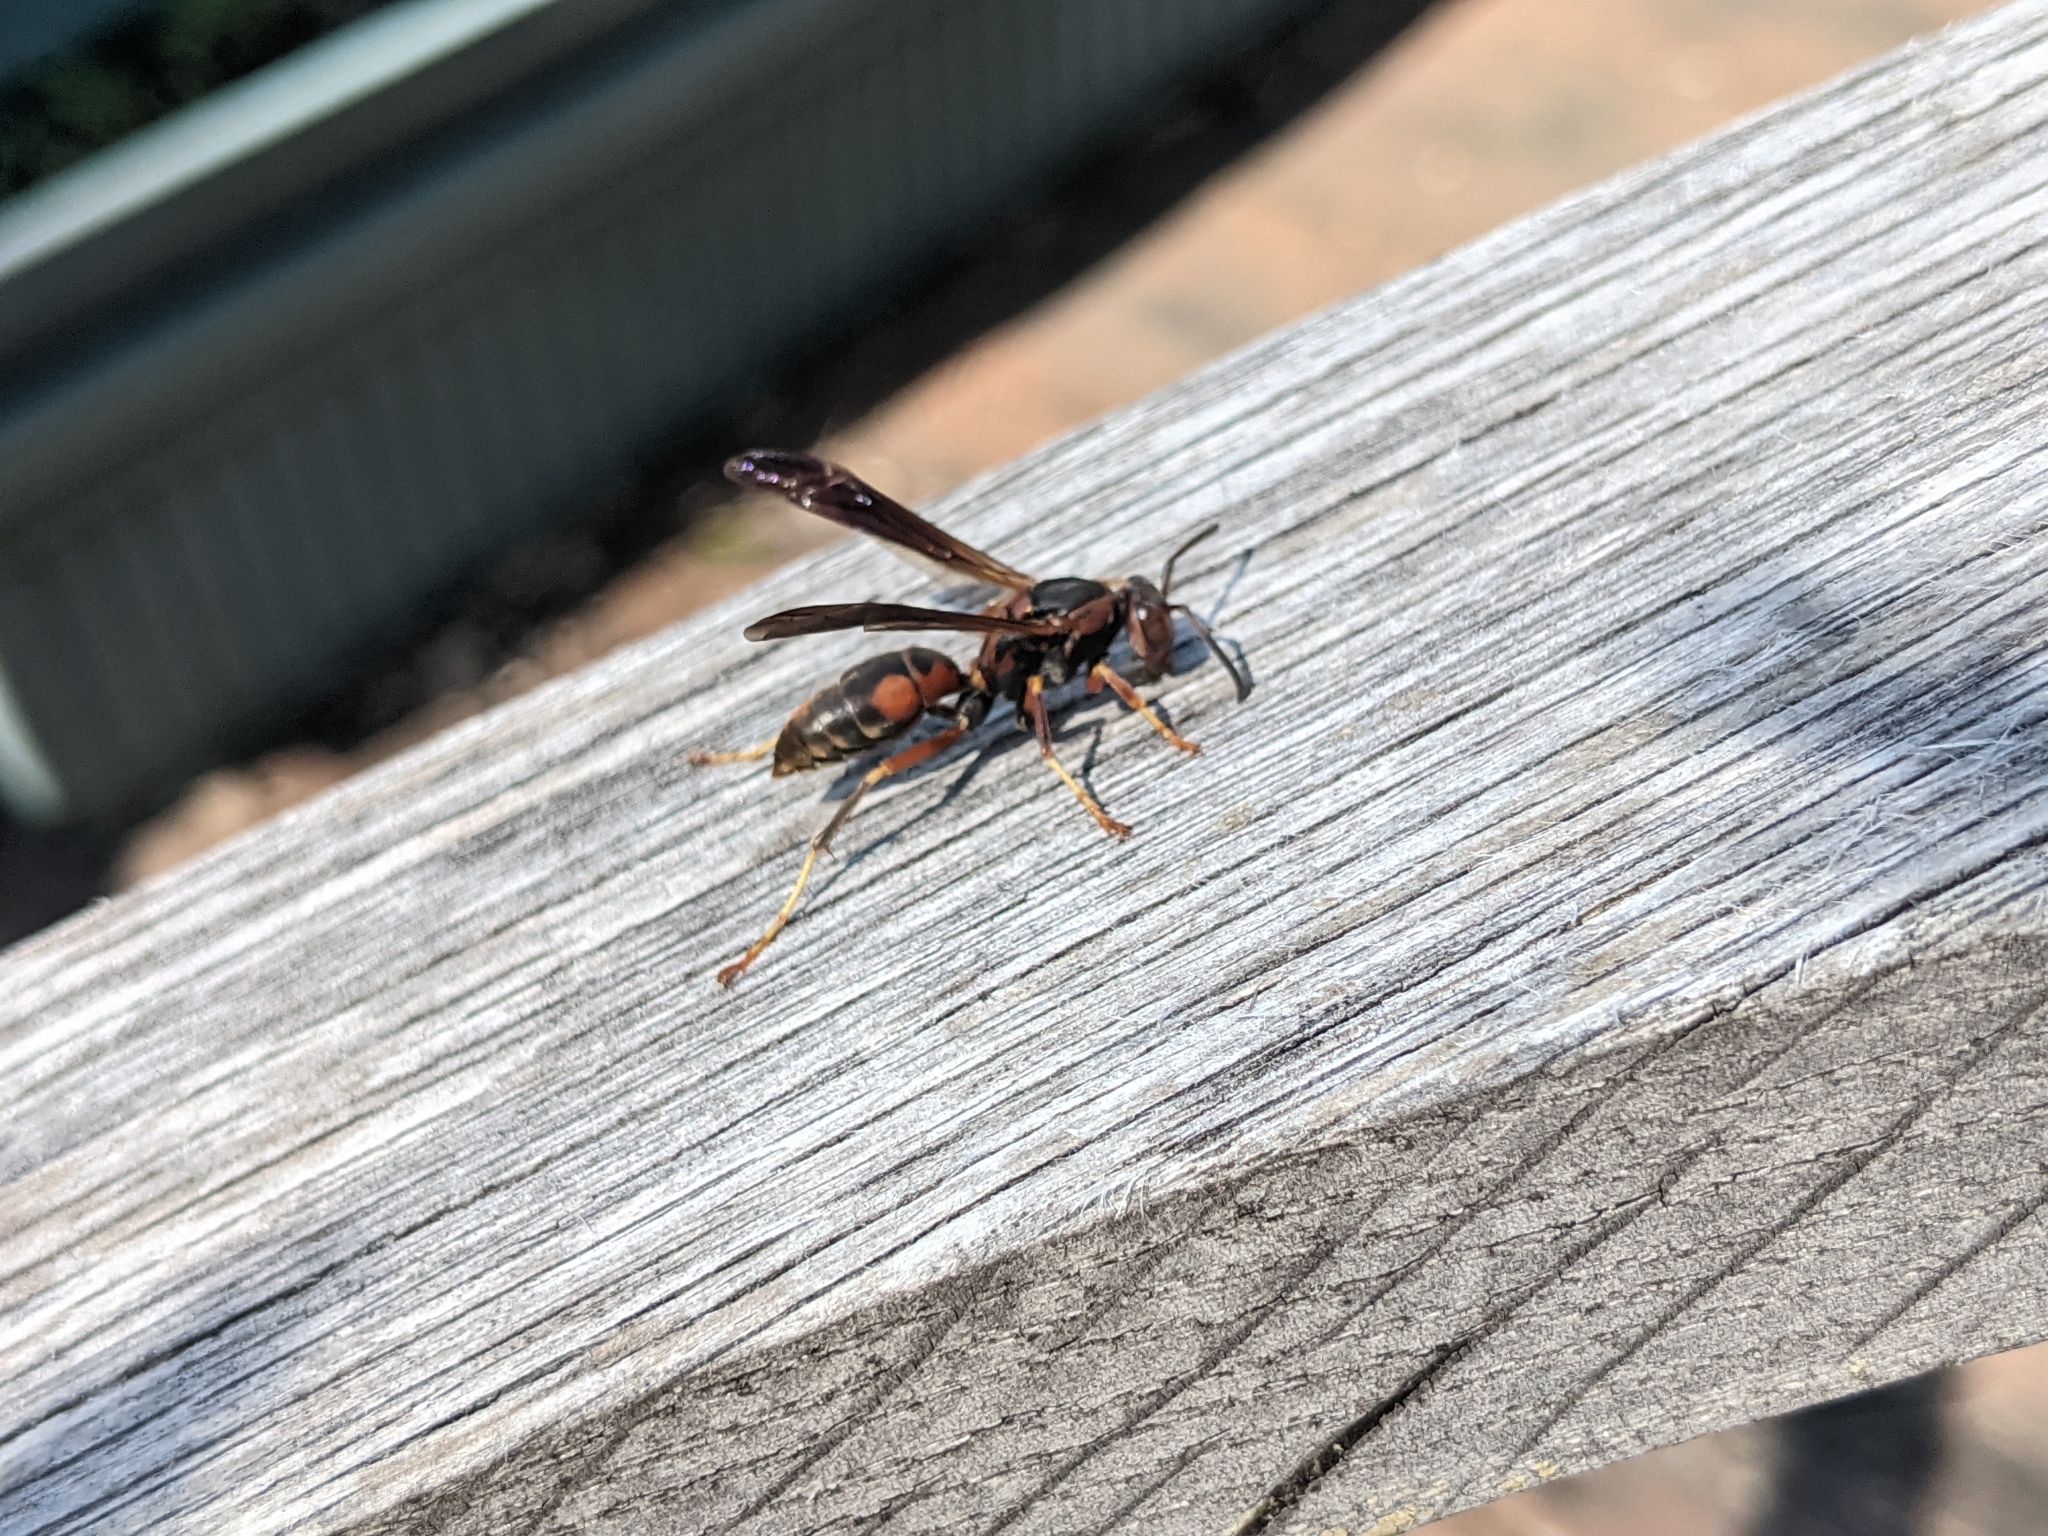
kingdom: Animalia
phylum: Arthropoda
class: Insecta
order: Hymenoptera
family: Eumenidae
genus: Polistes
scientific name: Polistes fuscatus
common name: Dark paper wasp
